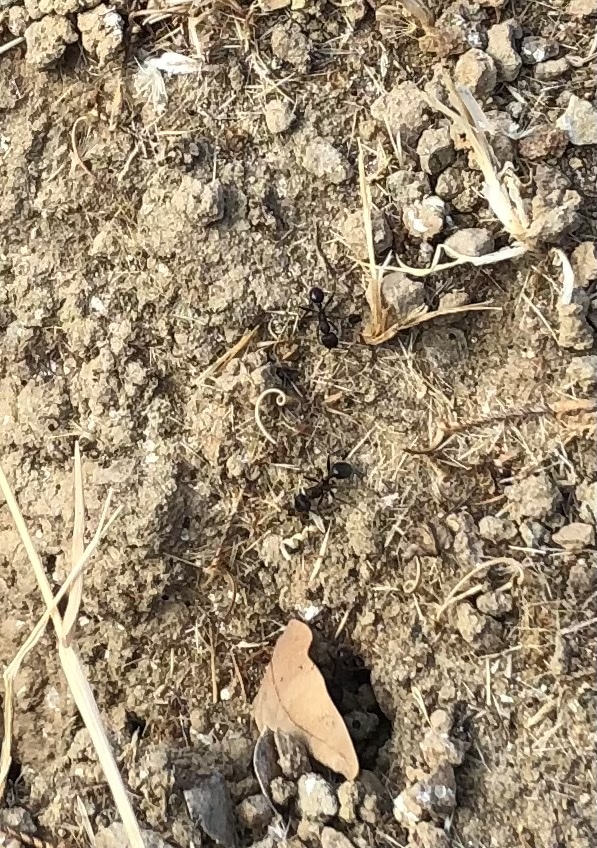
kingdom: Animalia
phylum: Arthropoda
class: Insecta
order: Hymenoptera
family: Formicidae
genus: Veromessor
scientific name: Veromessor andrei
